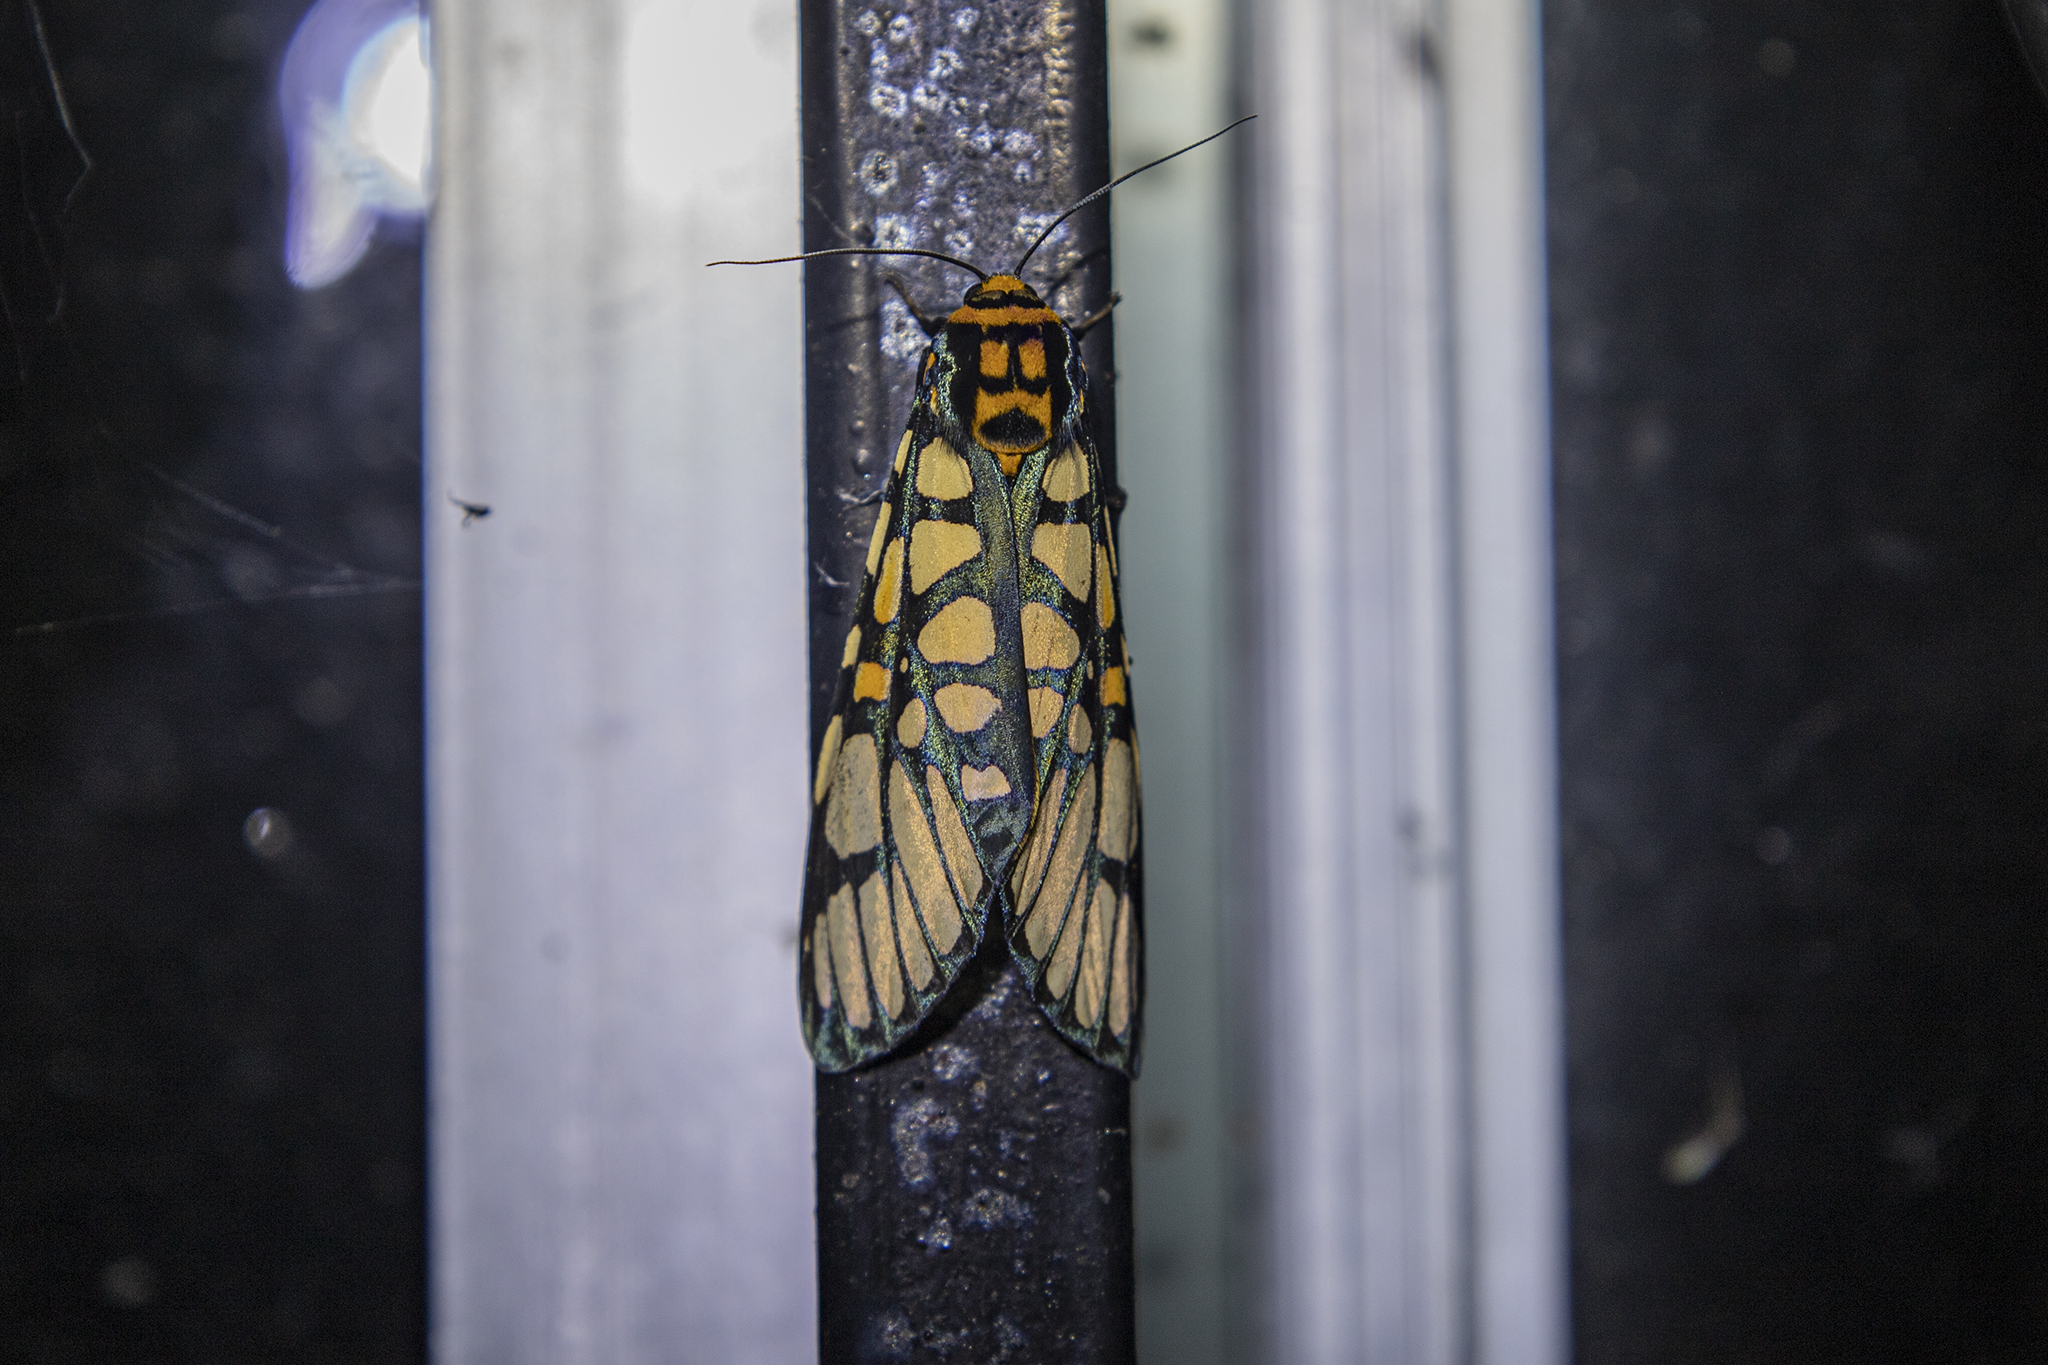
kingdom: Animalia
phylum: Arthropoda
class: Insecta
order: Lepidoptera
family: Erebidae
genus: Aglaomorpha
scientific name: Aglaomorpha plagiata
